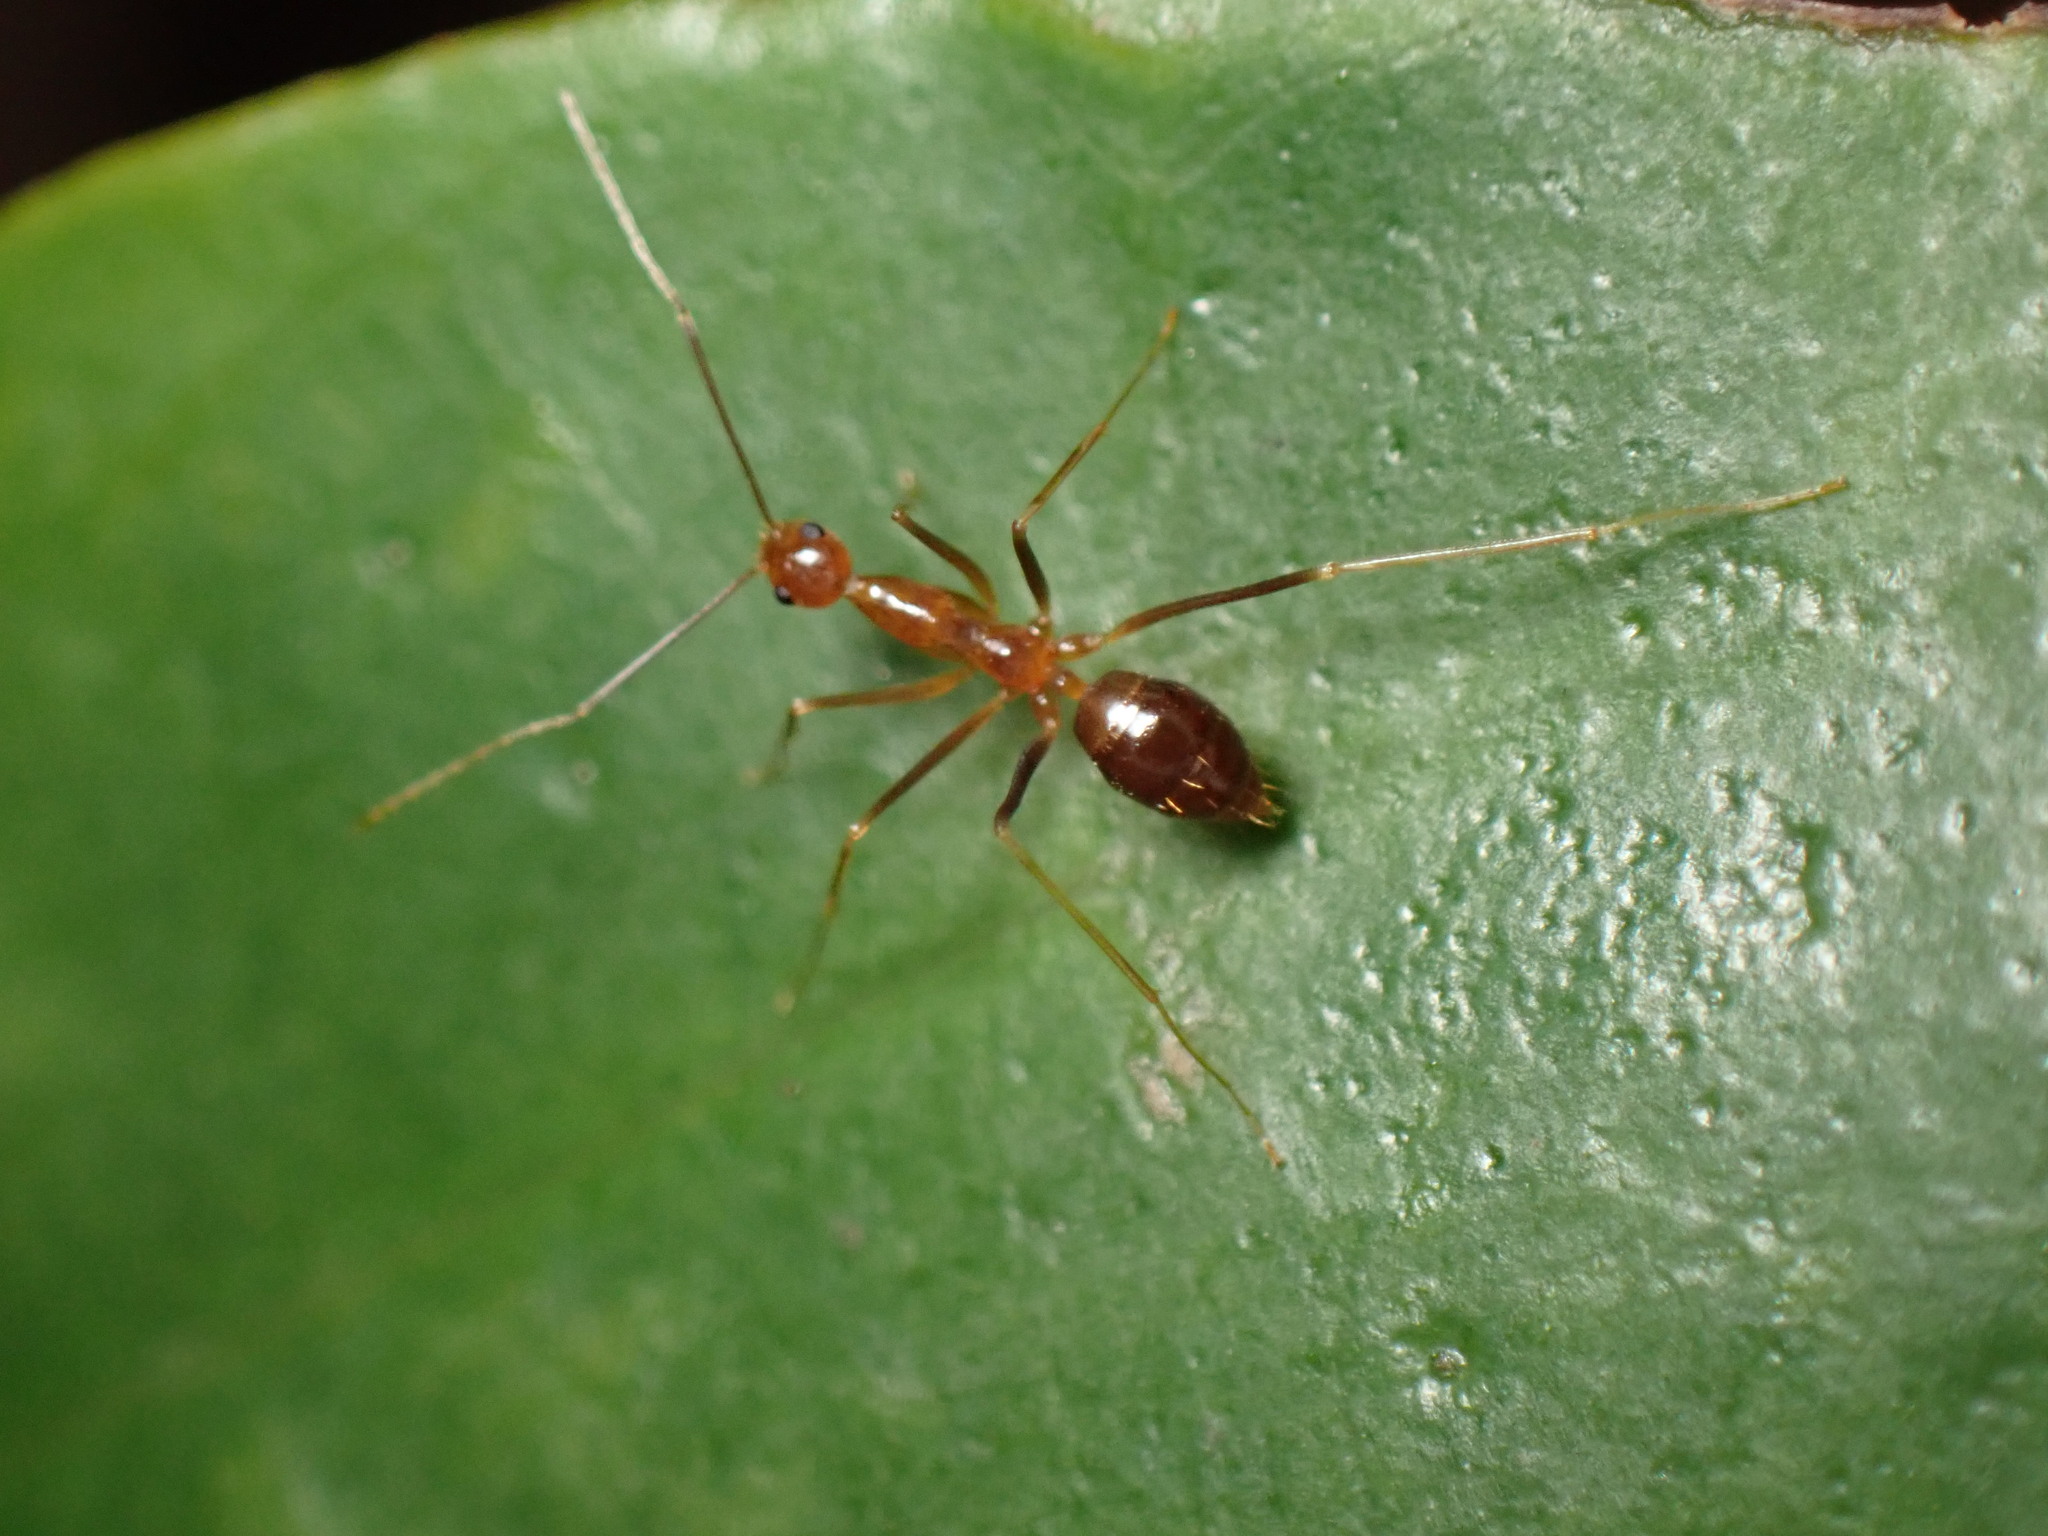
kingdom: Animalia
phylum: Arthropoda
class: Insecta
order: Hymenoptera
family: Formicidae
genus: Anoplolepis
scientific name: Anoplolepis gracilipes
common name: Ant
